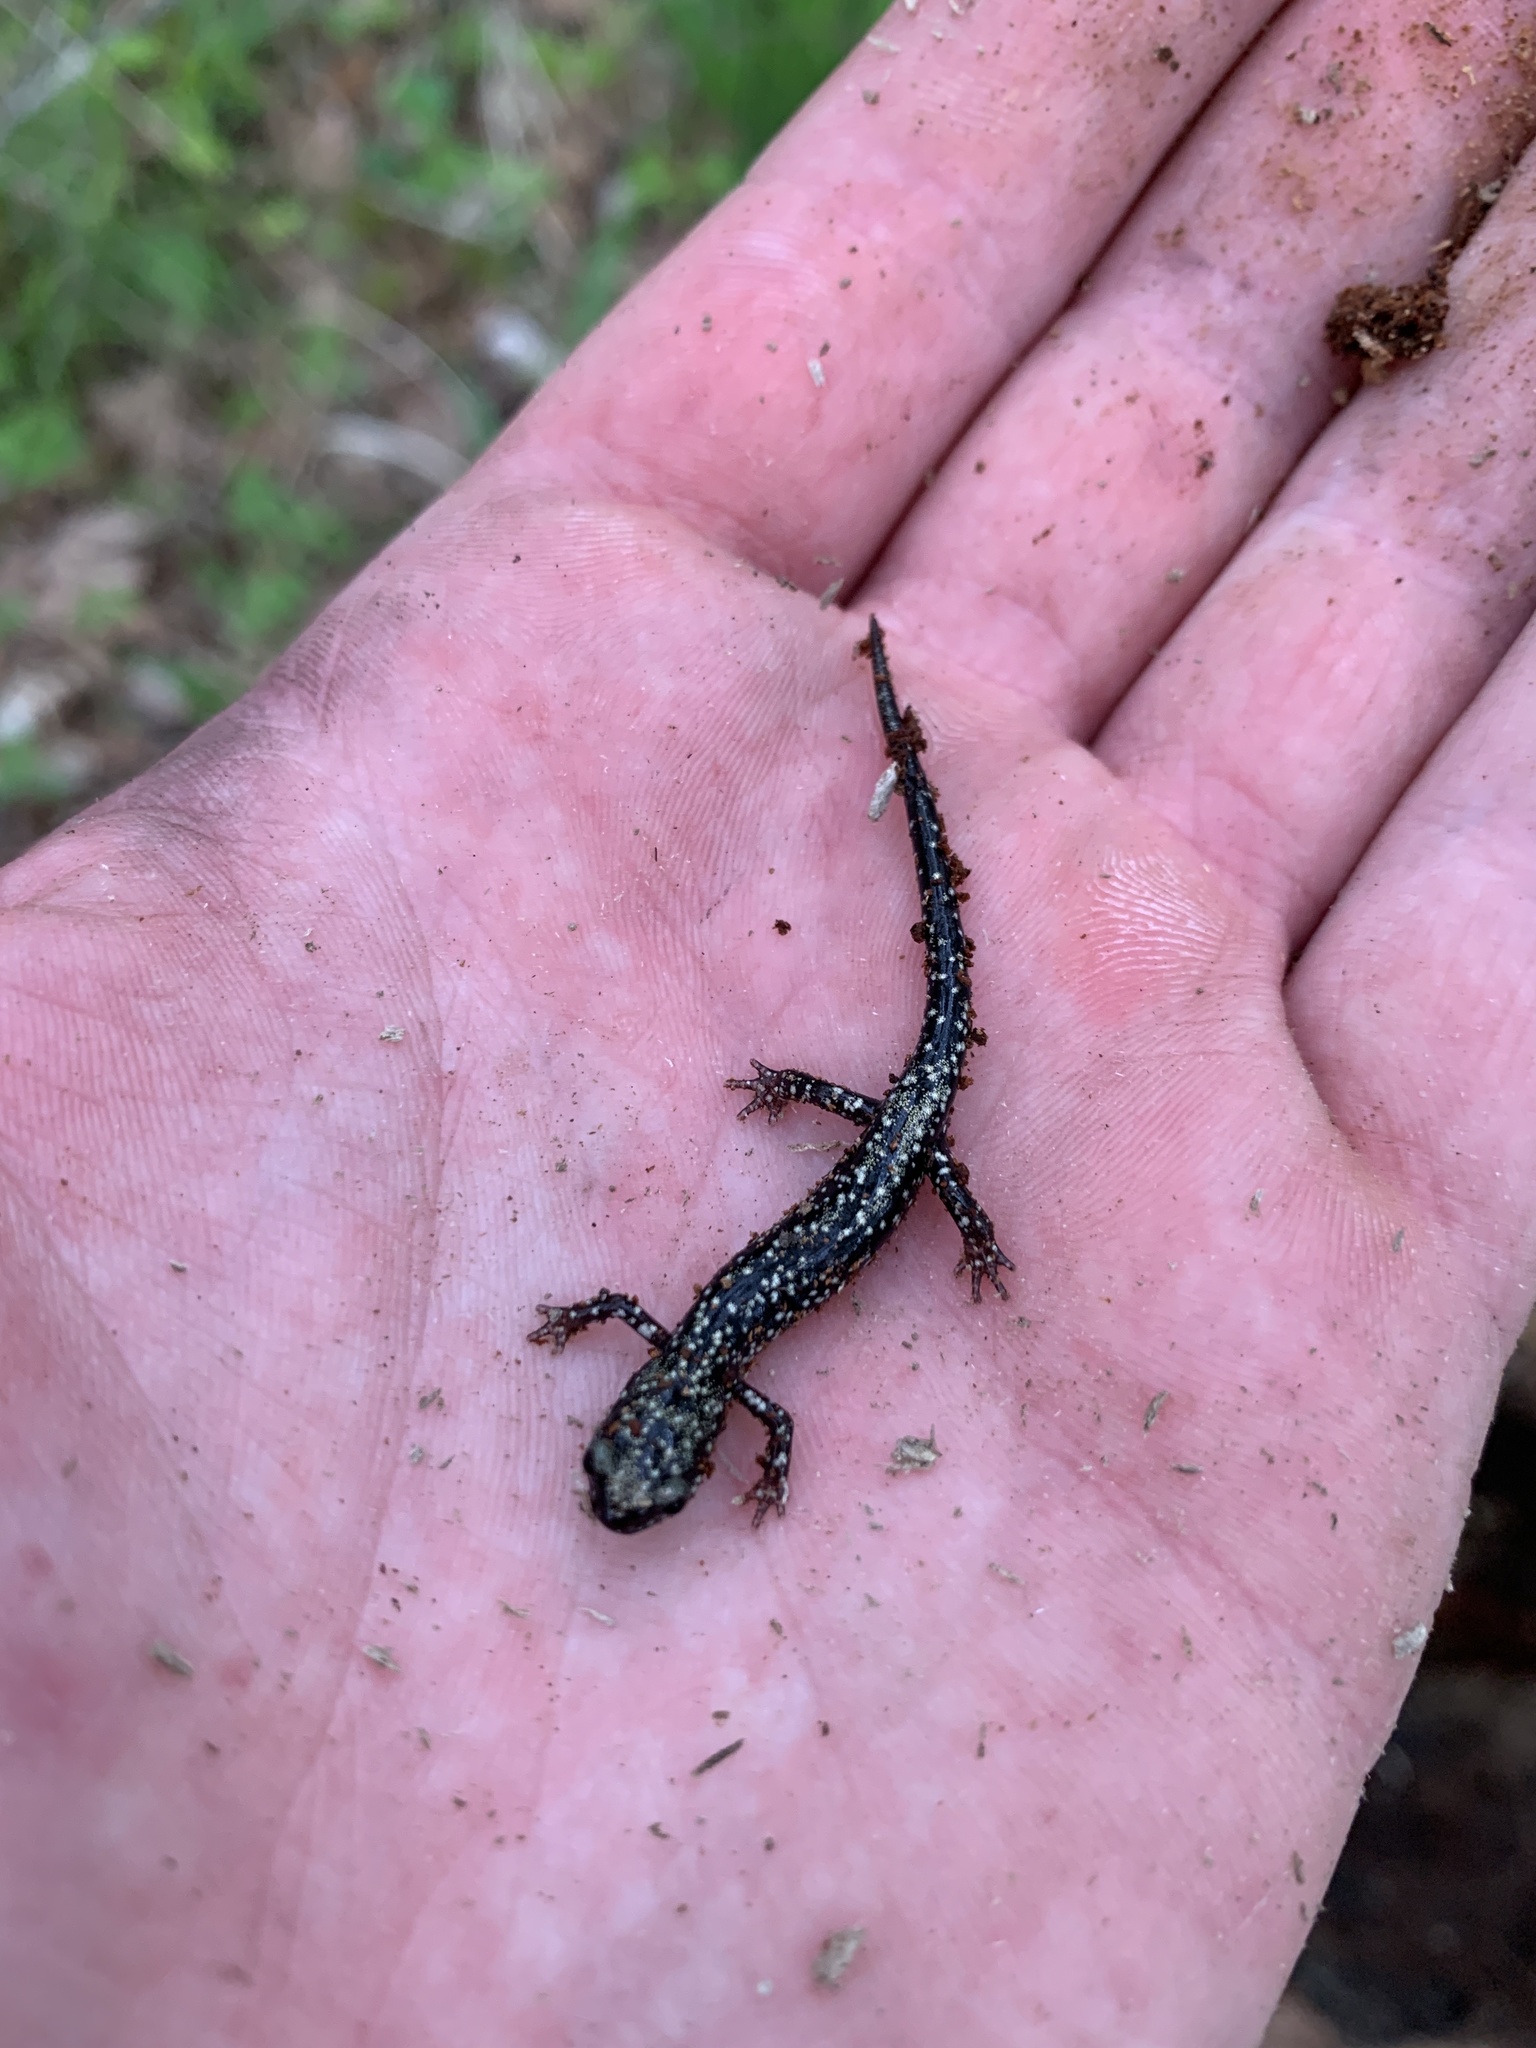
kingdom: Animalia
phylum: Chordata
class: Amphibia
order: Caudata
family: Plethodontidae
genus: Plethodon
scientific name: Plethodon glutinosus
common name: Northern slimy salamander
